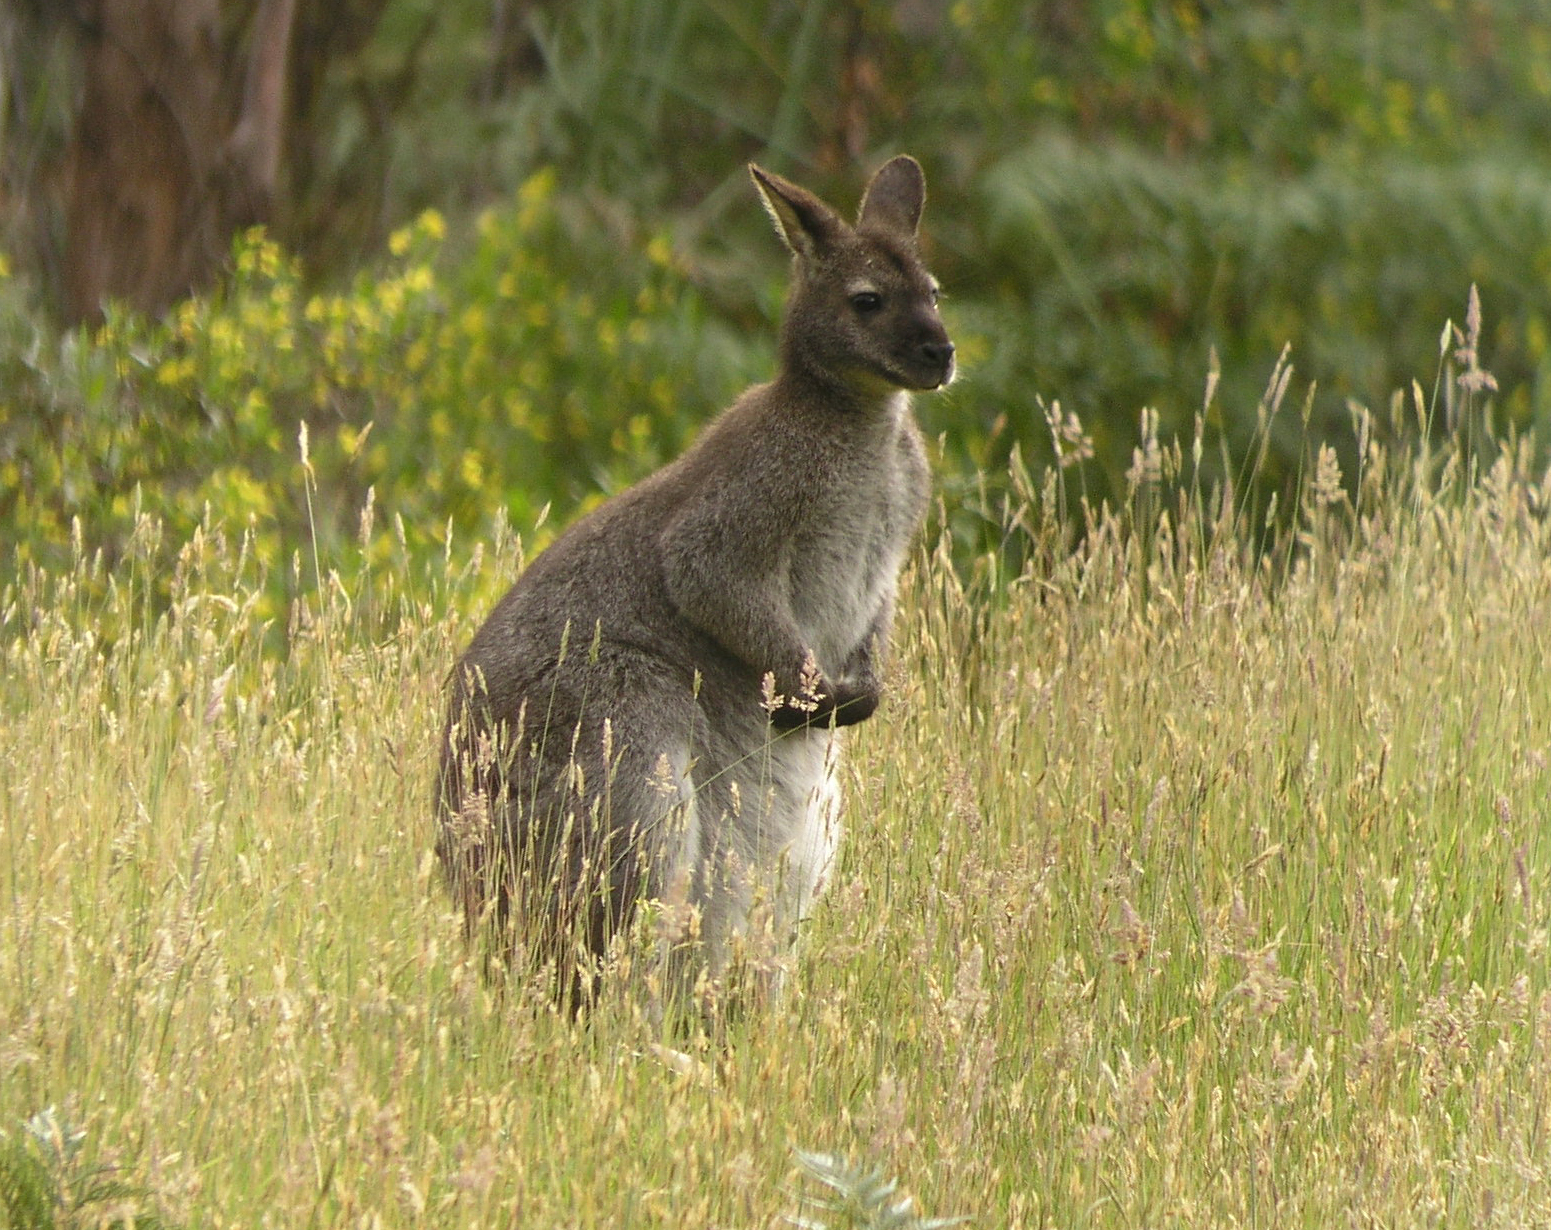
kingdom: Animalia
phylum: Chordata
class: Mammalia
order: Diprotodontia
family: Macropodidae
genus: Notamacropus
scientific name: Notamacropus rufogriseus
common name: Red-necked wallaby
